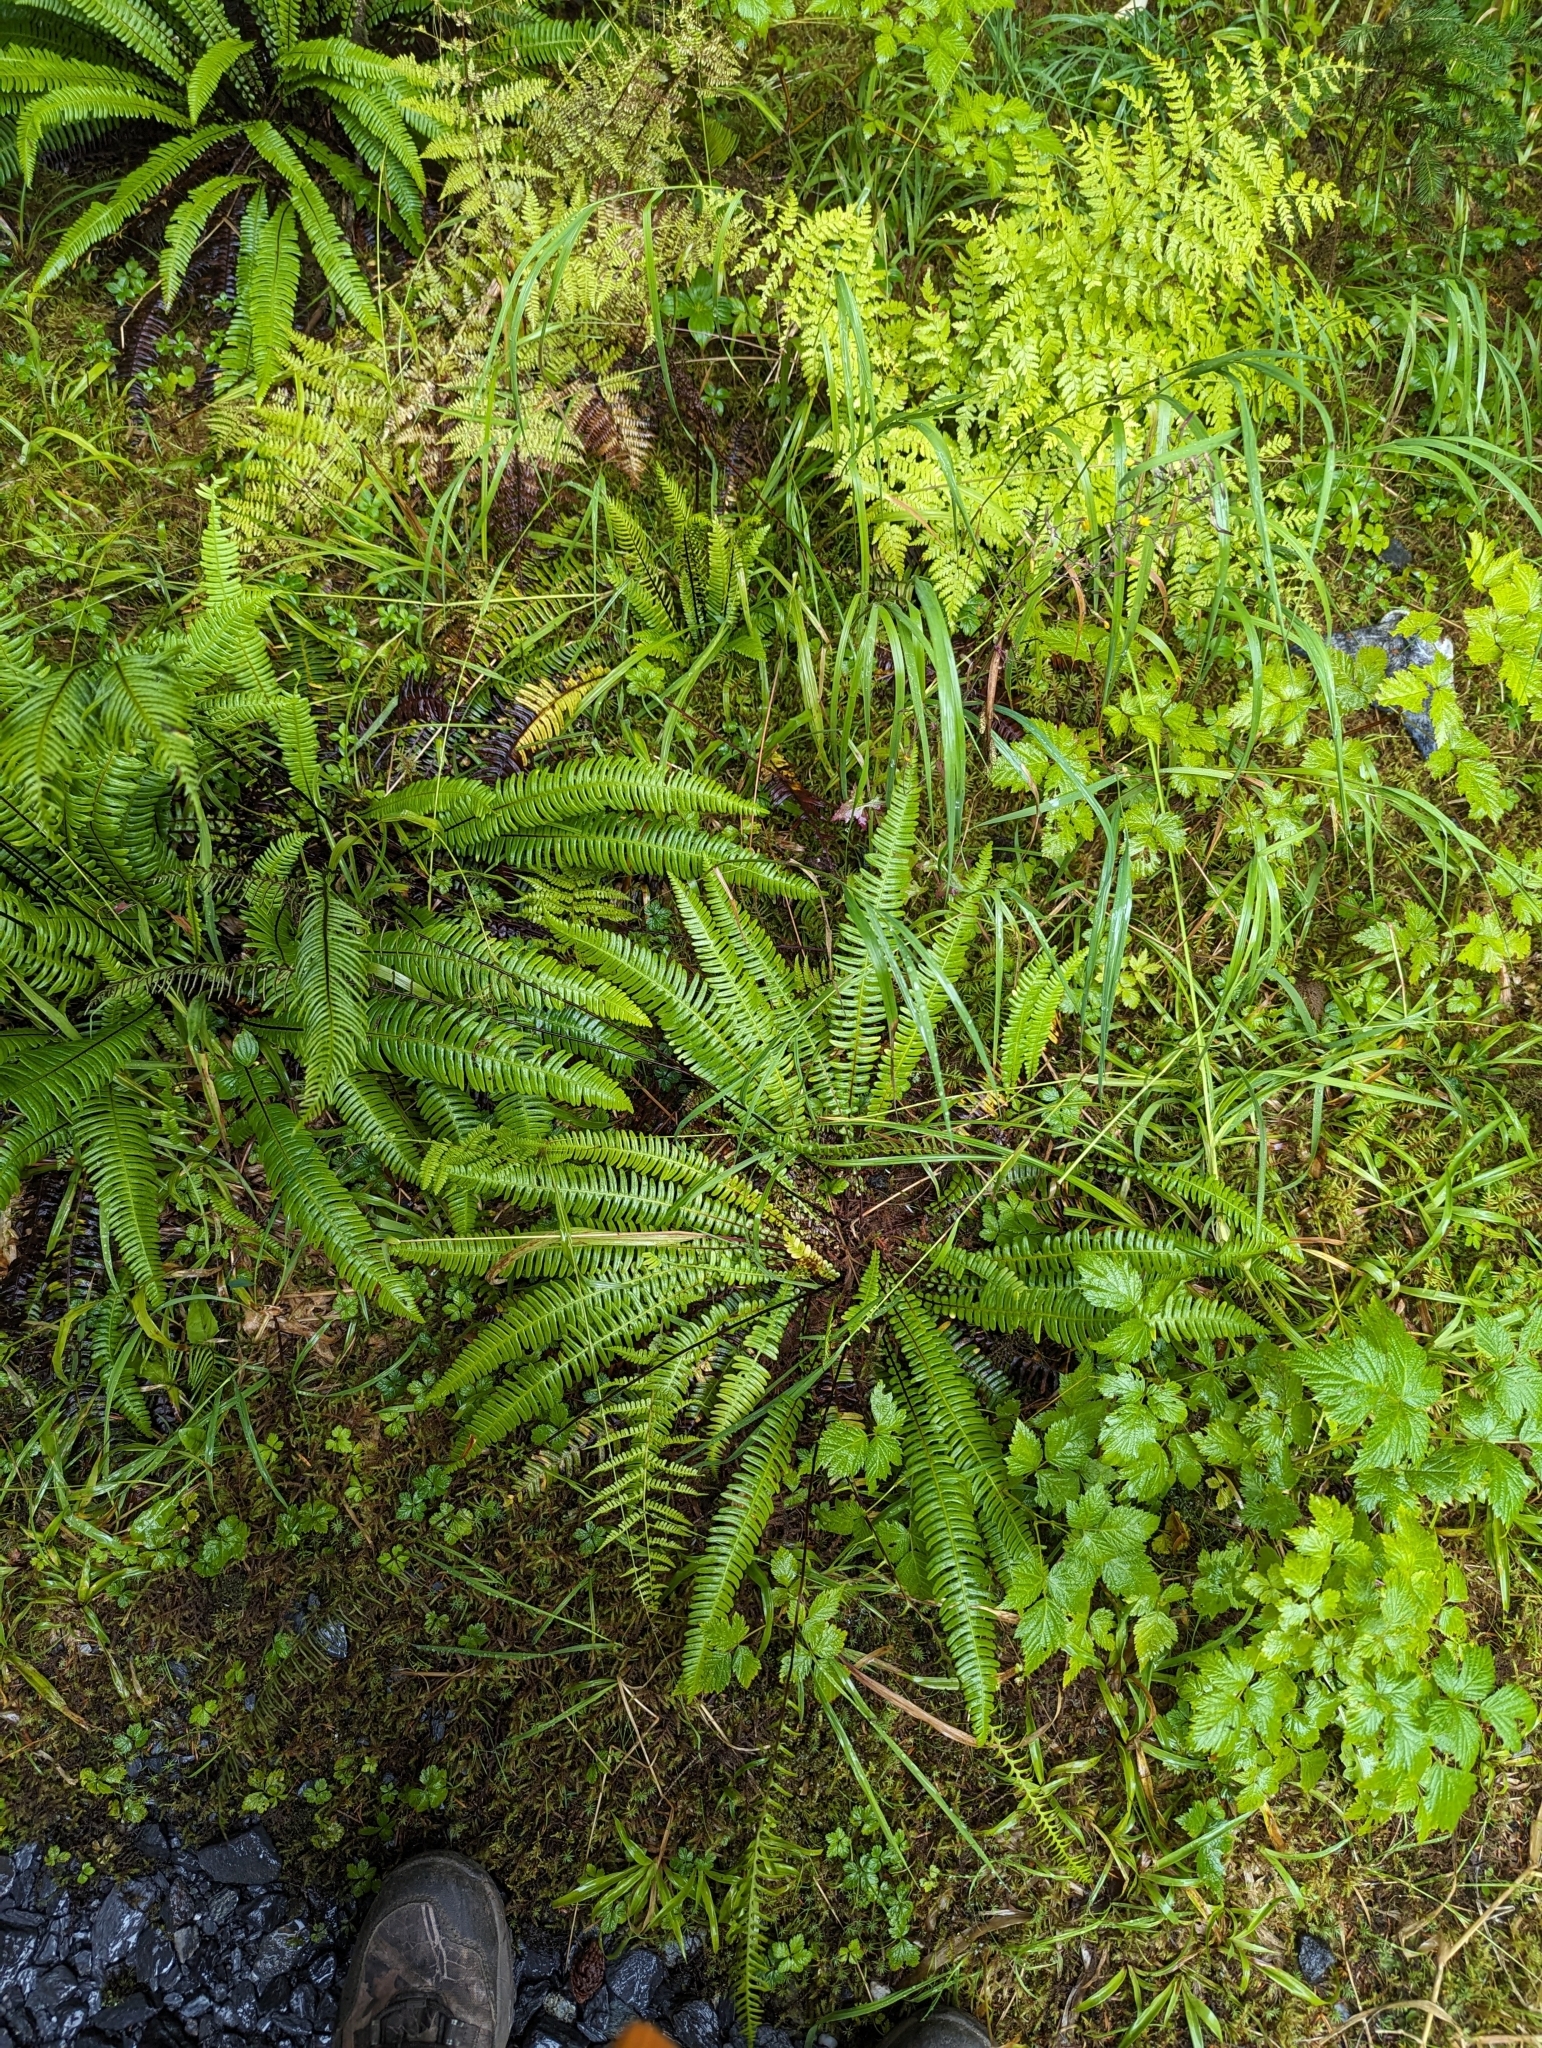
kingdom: Plantae
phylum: Tracheophyta
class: Polypodiopsida
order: Polypodiales
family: Blechnaceae
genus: Struthiopteris
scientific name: Struthiopteris spicant
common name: Deer fern
